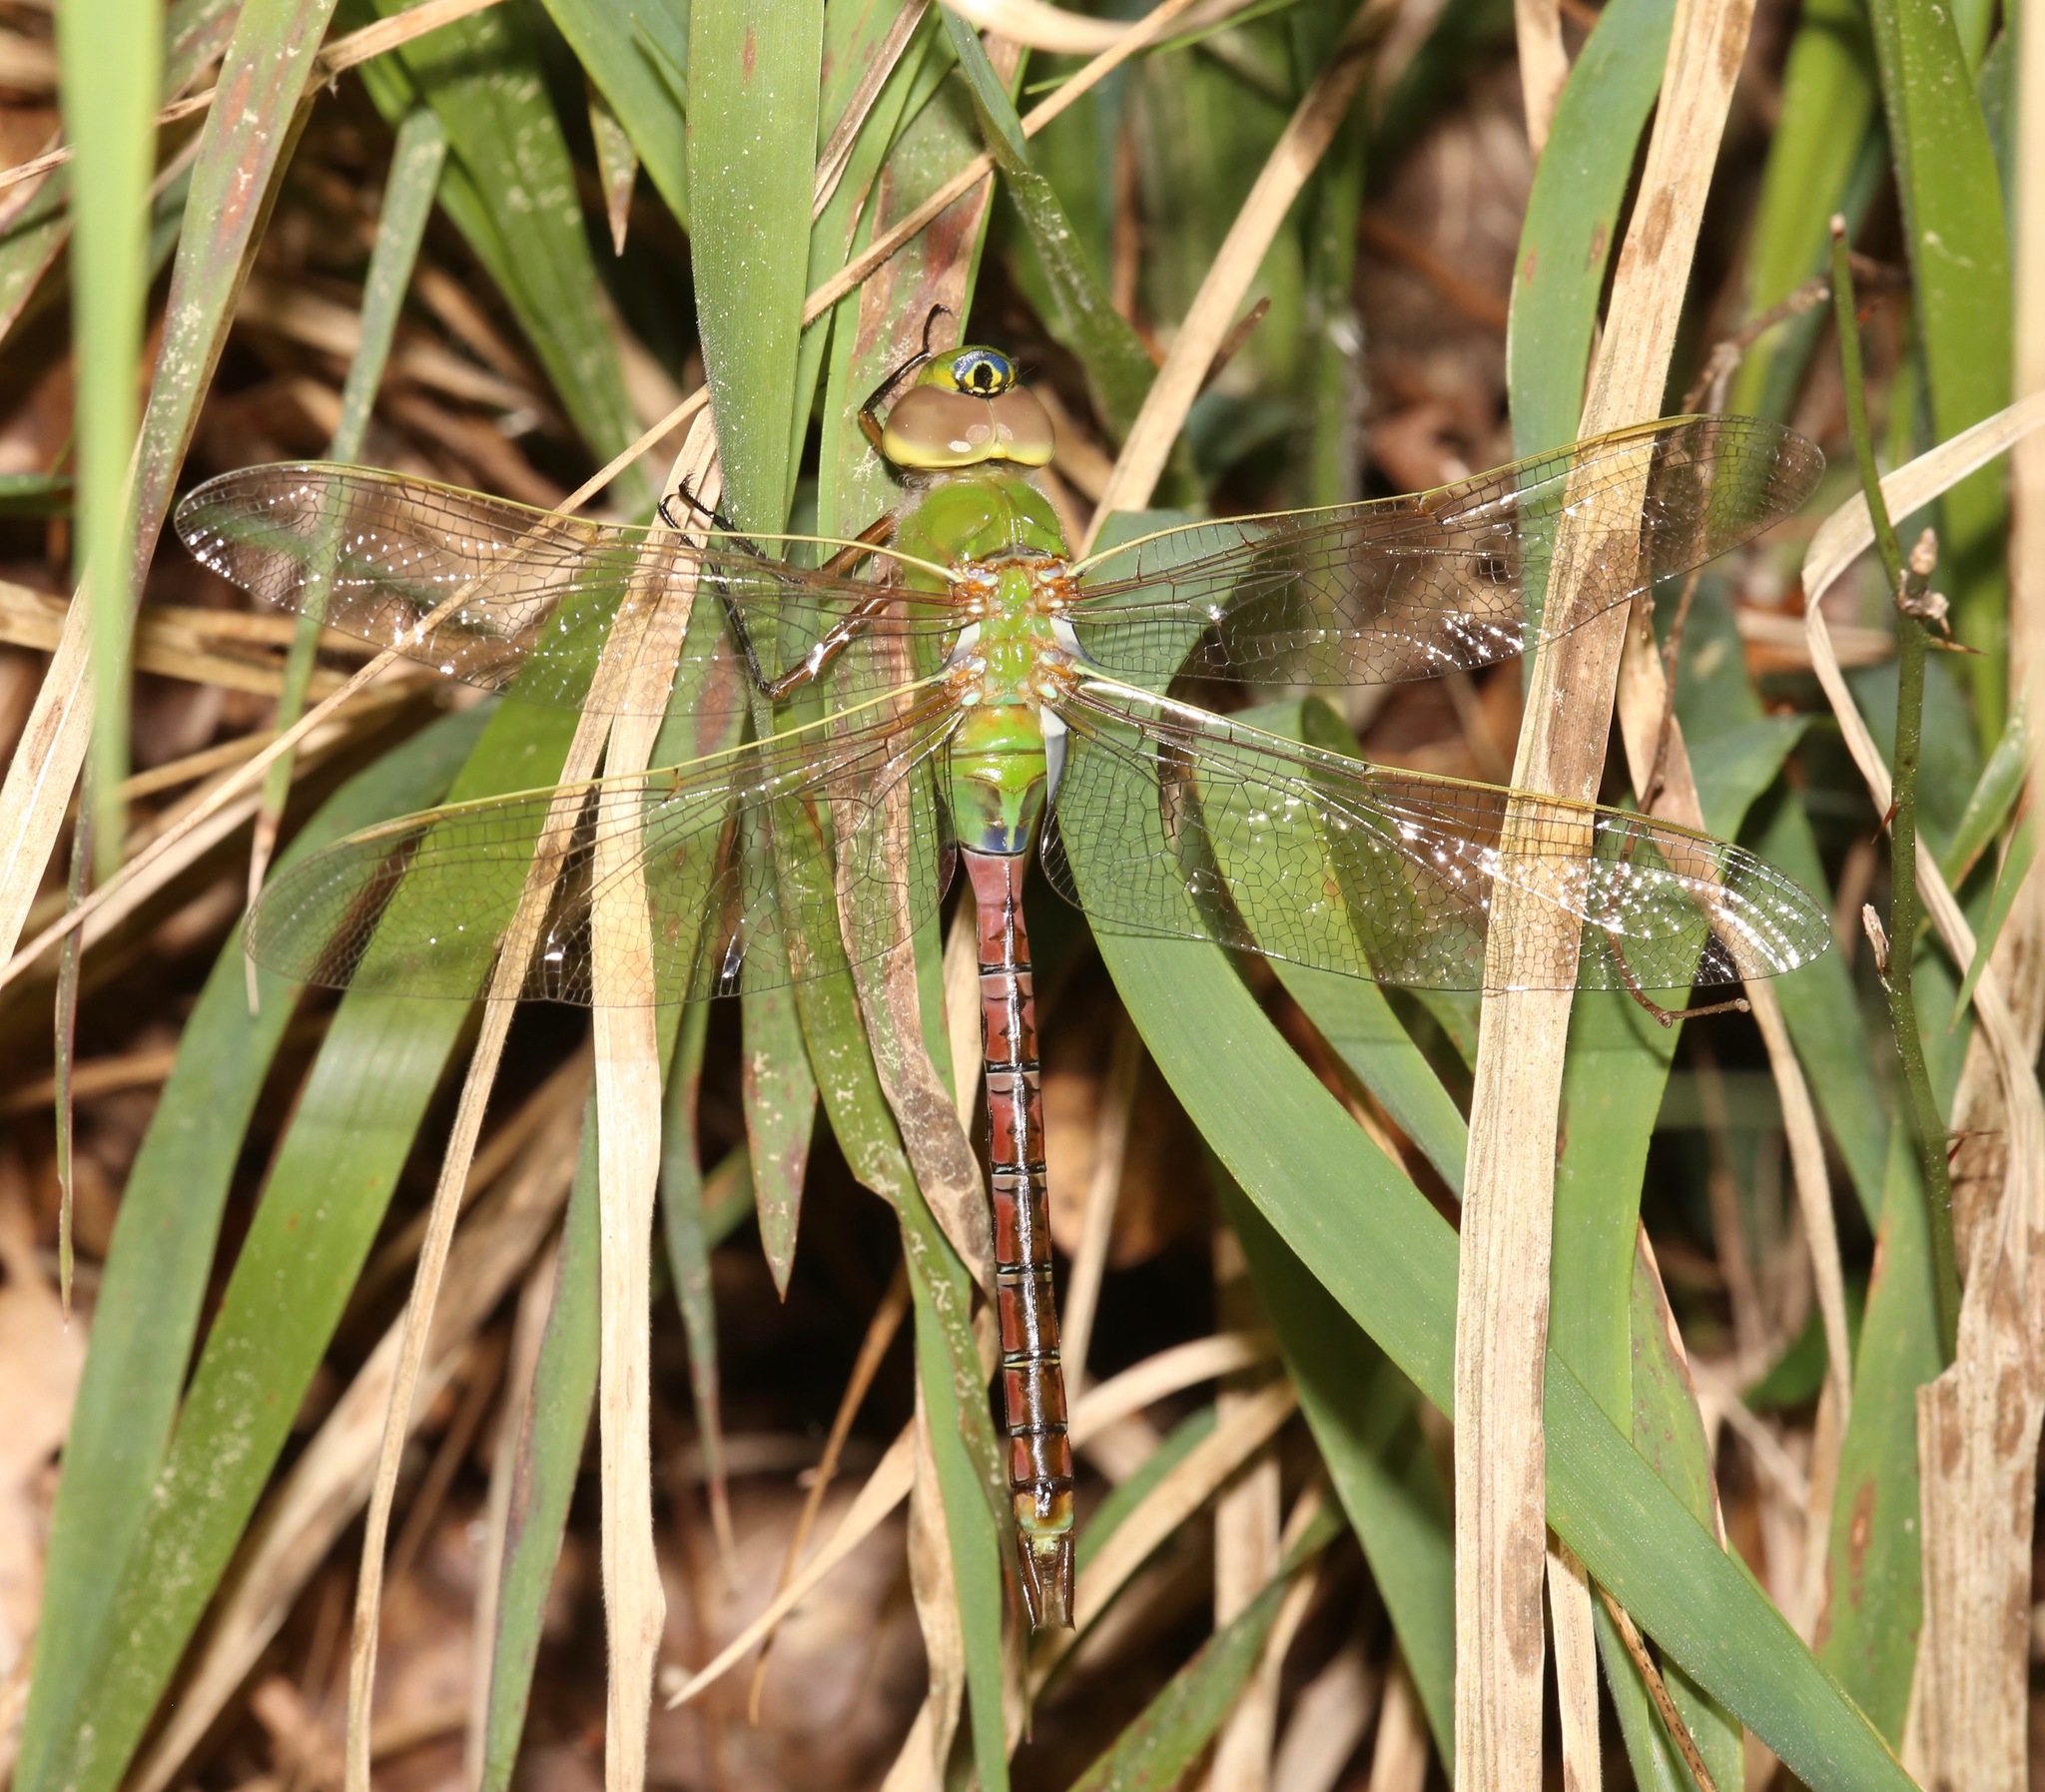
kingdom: Animalia
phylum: Arthropoda
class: Insecta
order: Odonata
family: Aeshnidae
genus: Anax
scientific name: Anax junius
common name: Common green darner
